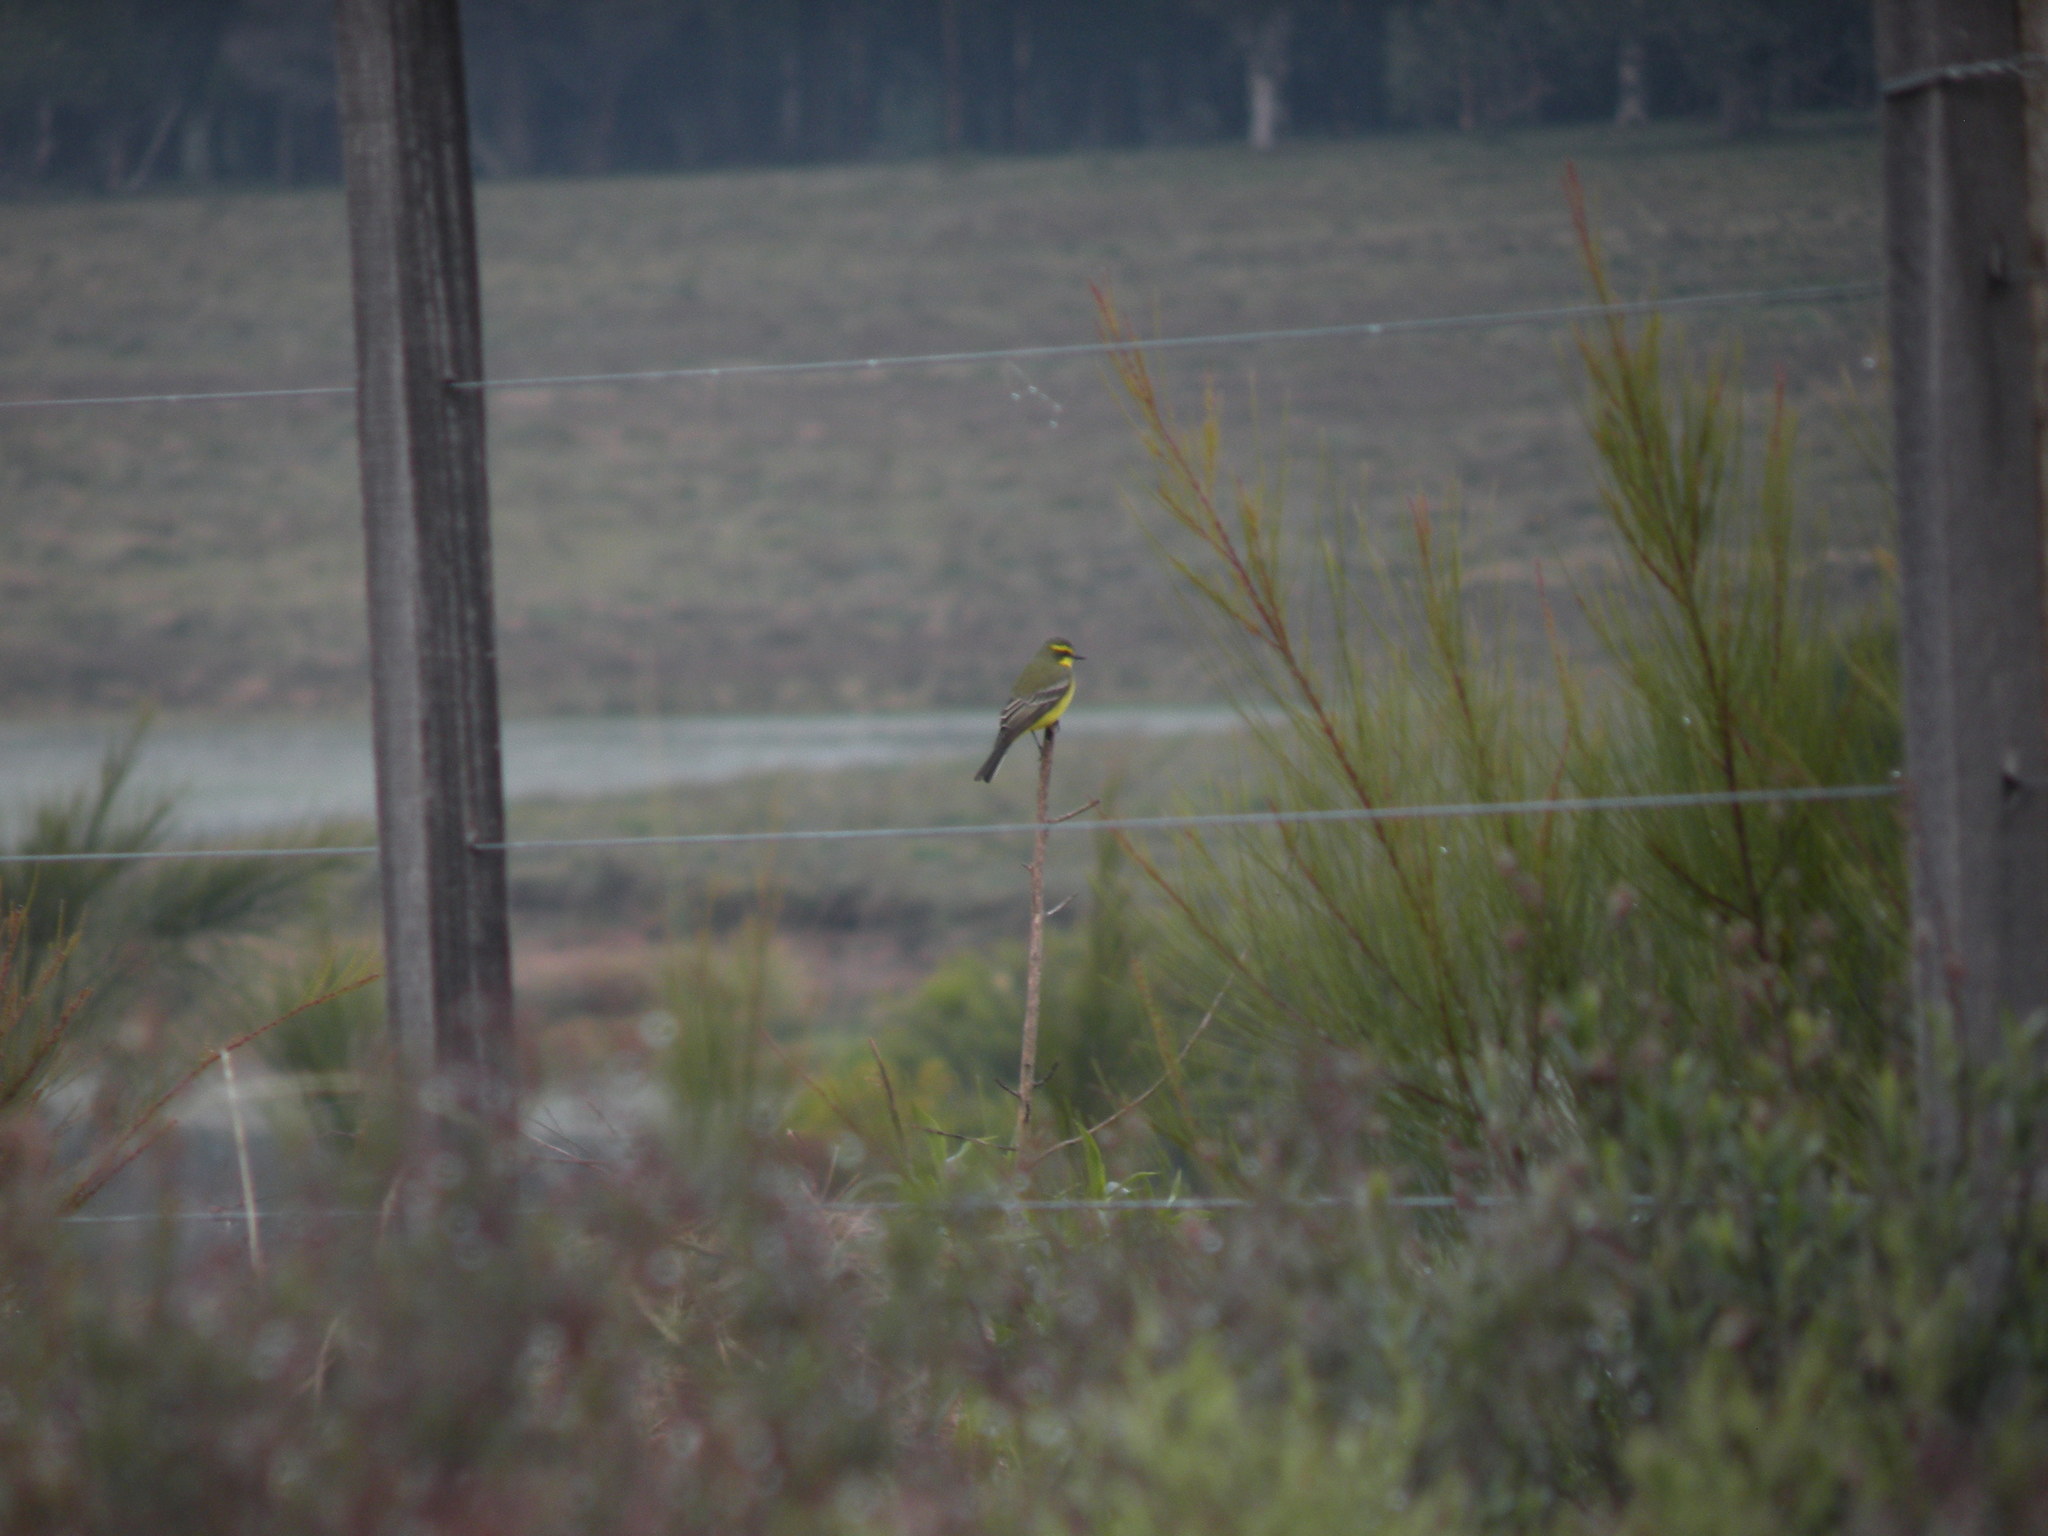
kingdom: Animalia
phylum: Chordata
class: Aves
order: Passeriformes
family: Tyrannidae
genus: Satrapa
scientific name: Satrapa icterophrys
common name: Yellow-browed tyrant
